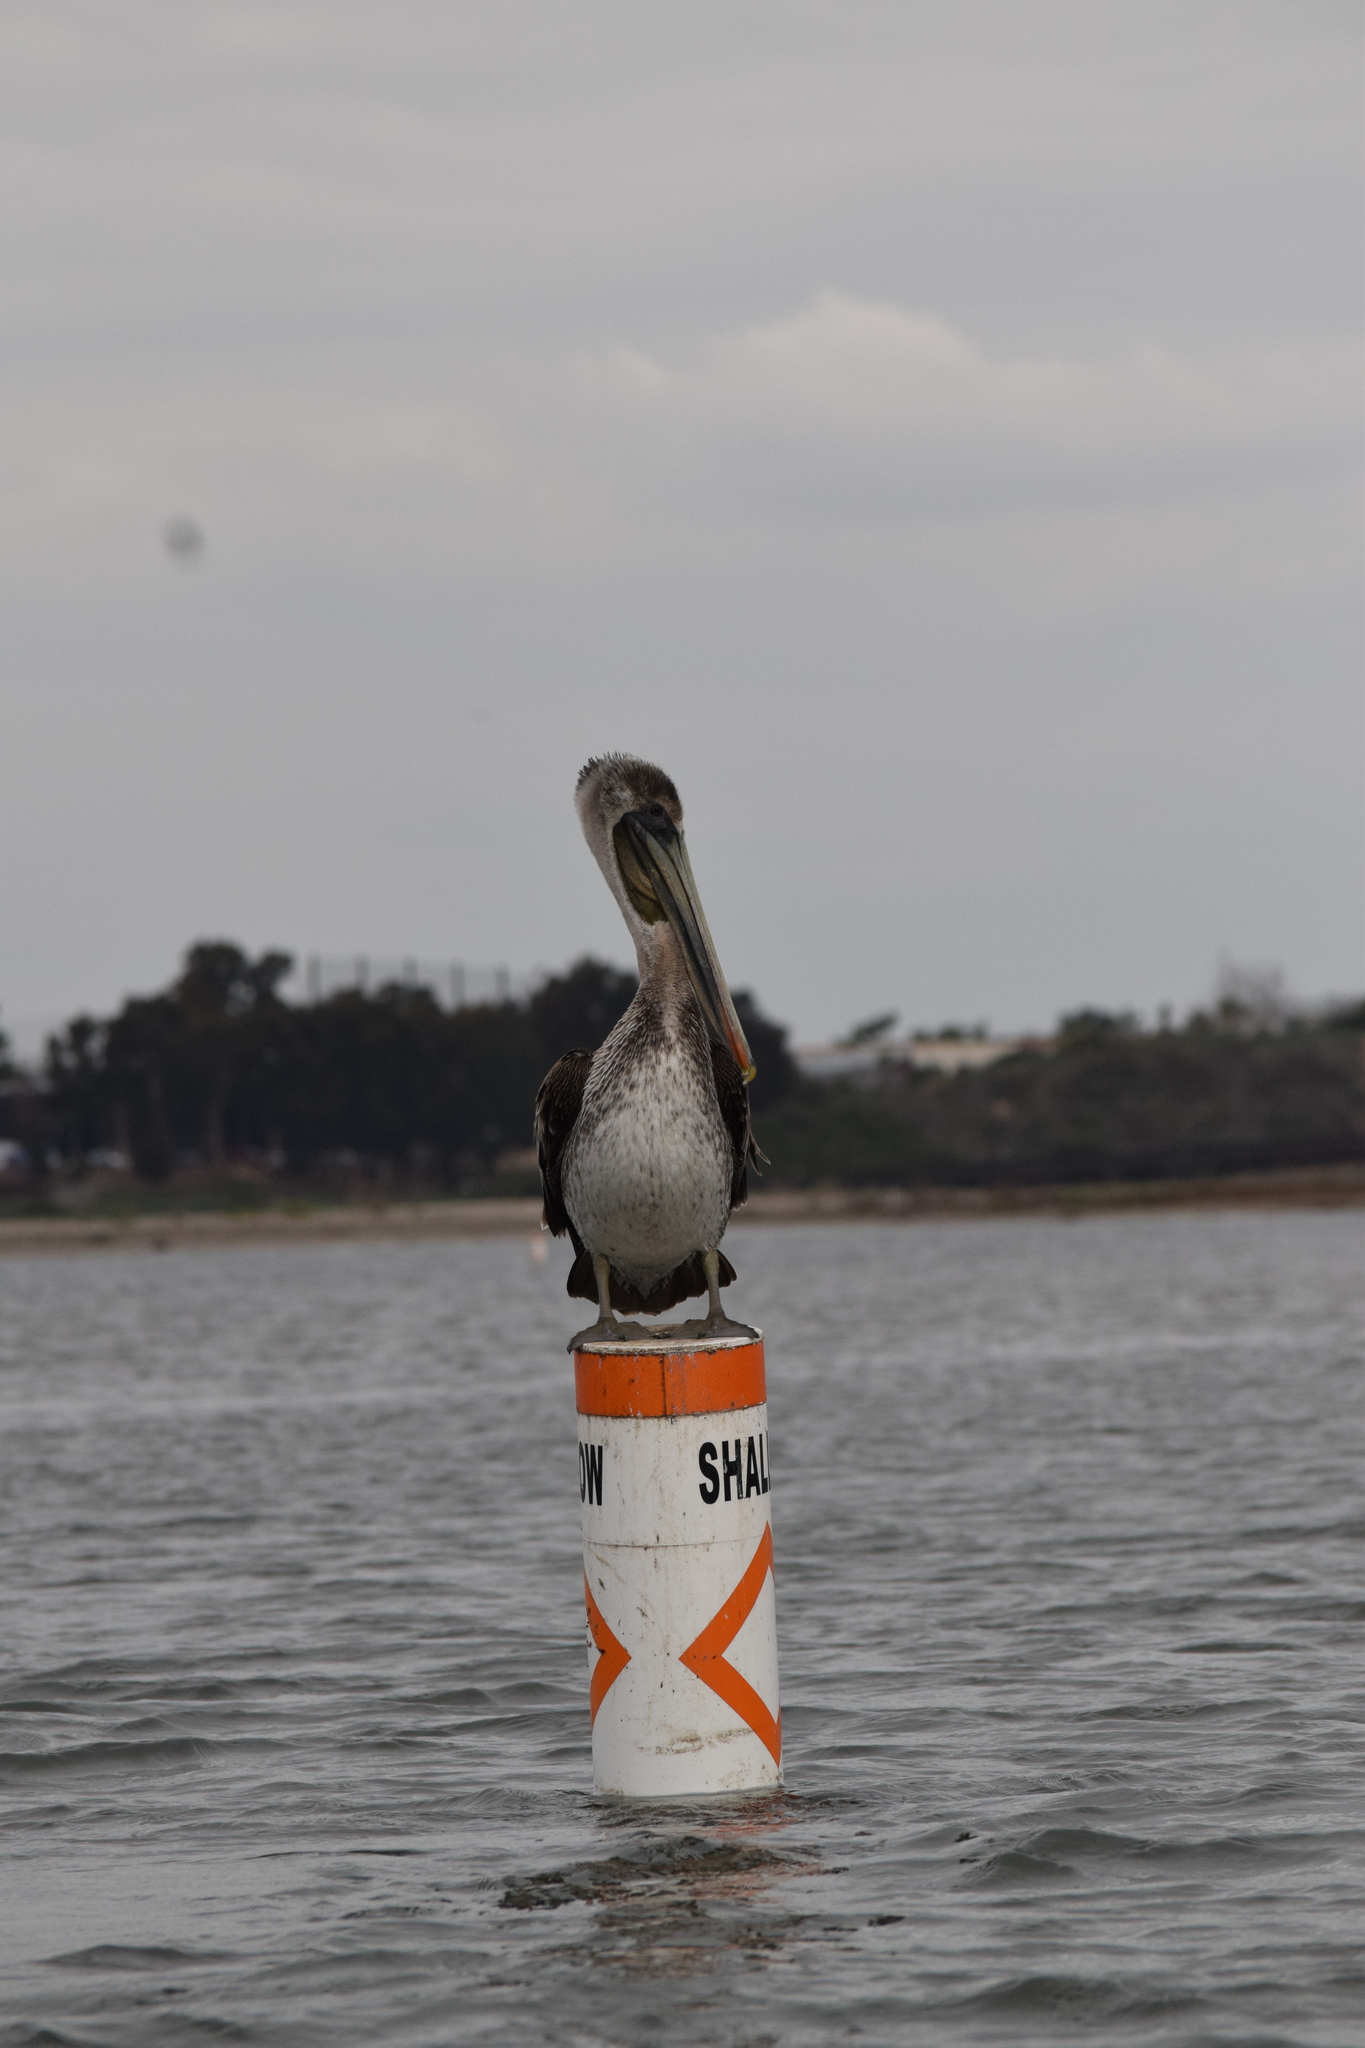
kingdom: Animalia
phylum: Chordata
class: Aves
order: Pelecaniformes
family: Pelecanidae
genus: Pelecanus
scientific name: Pelecanus occidentalis
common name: Brown pelican
